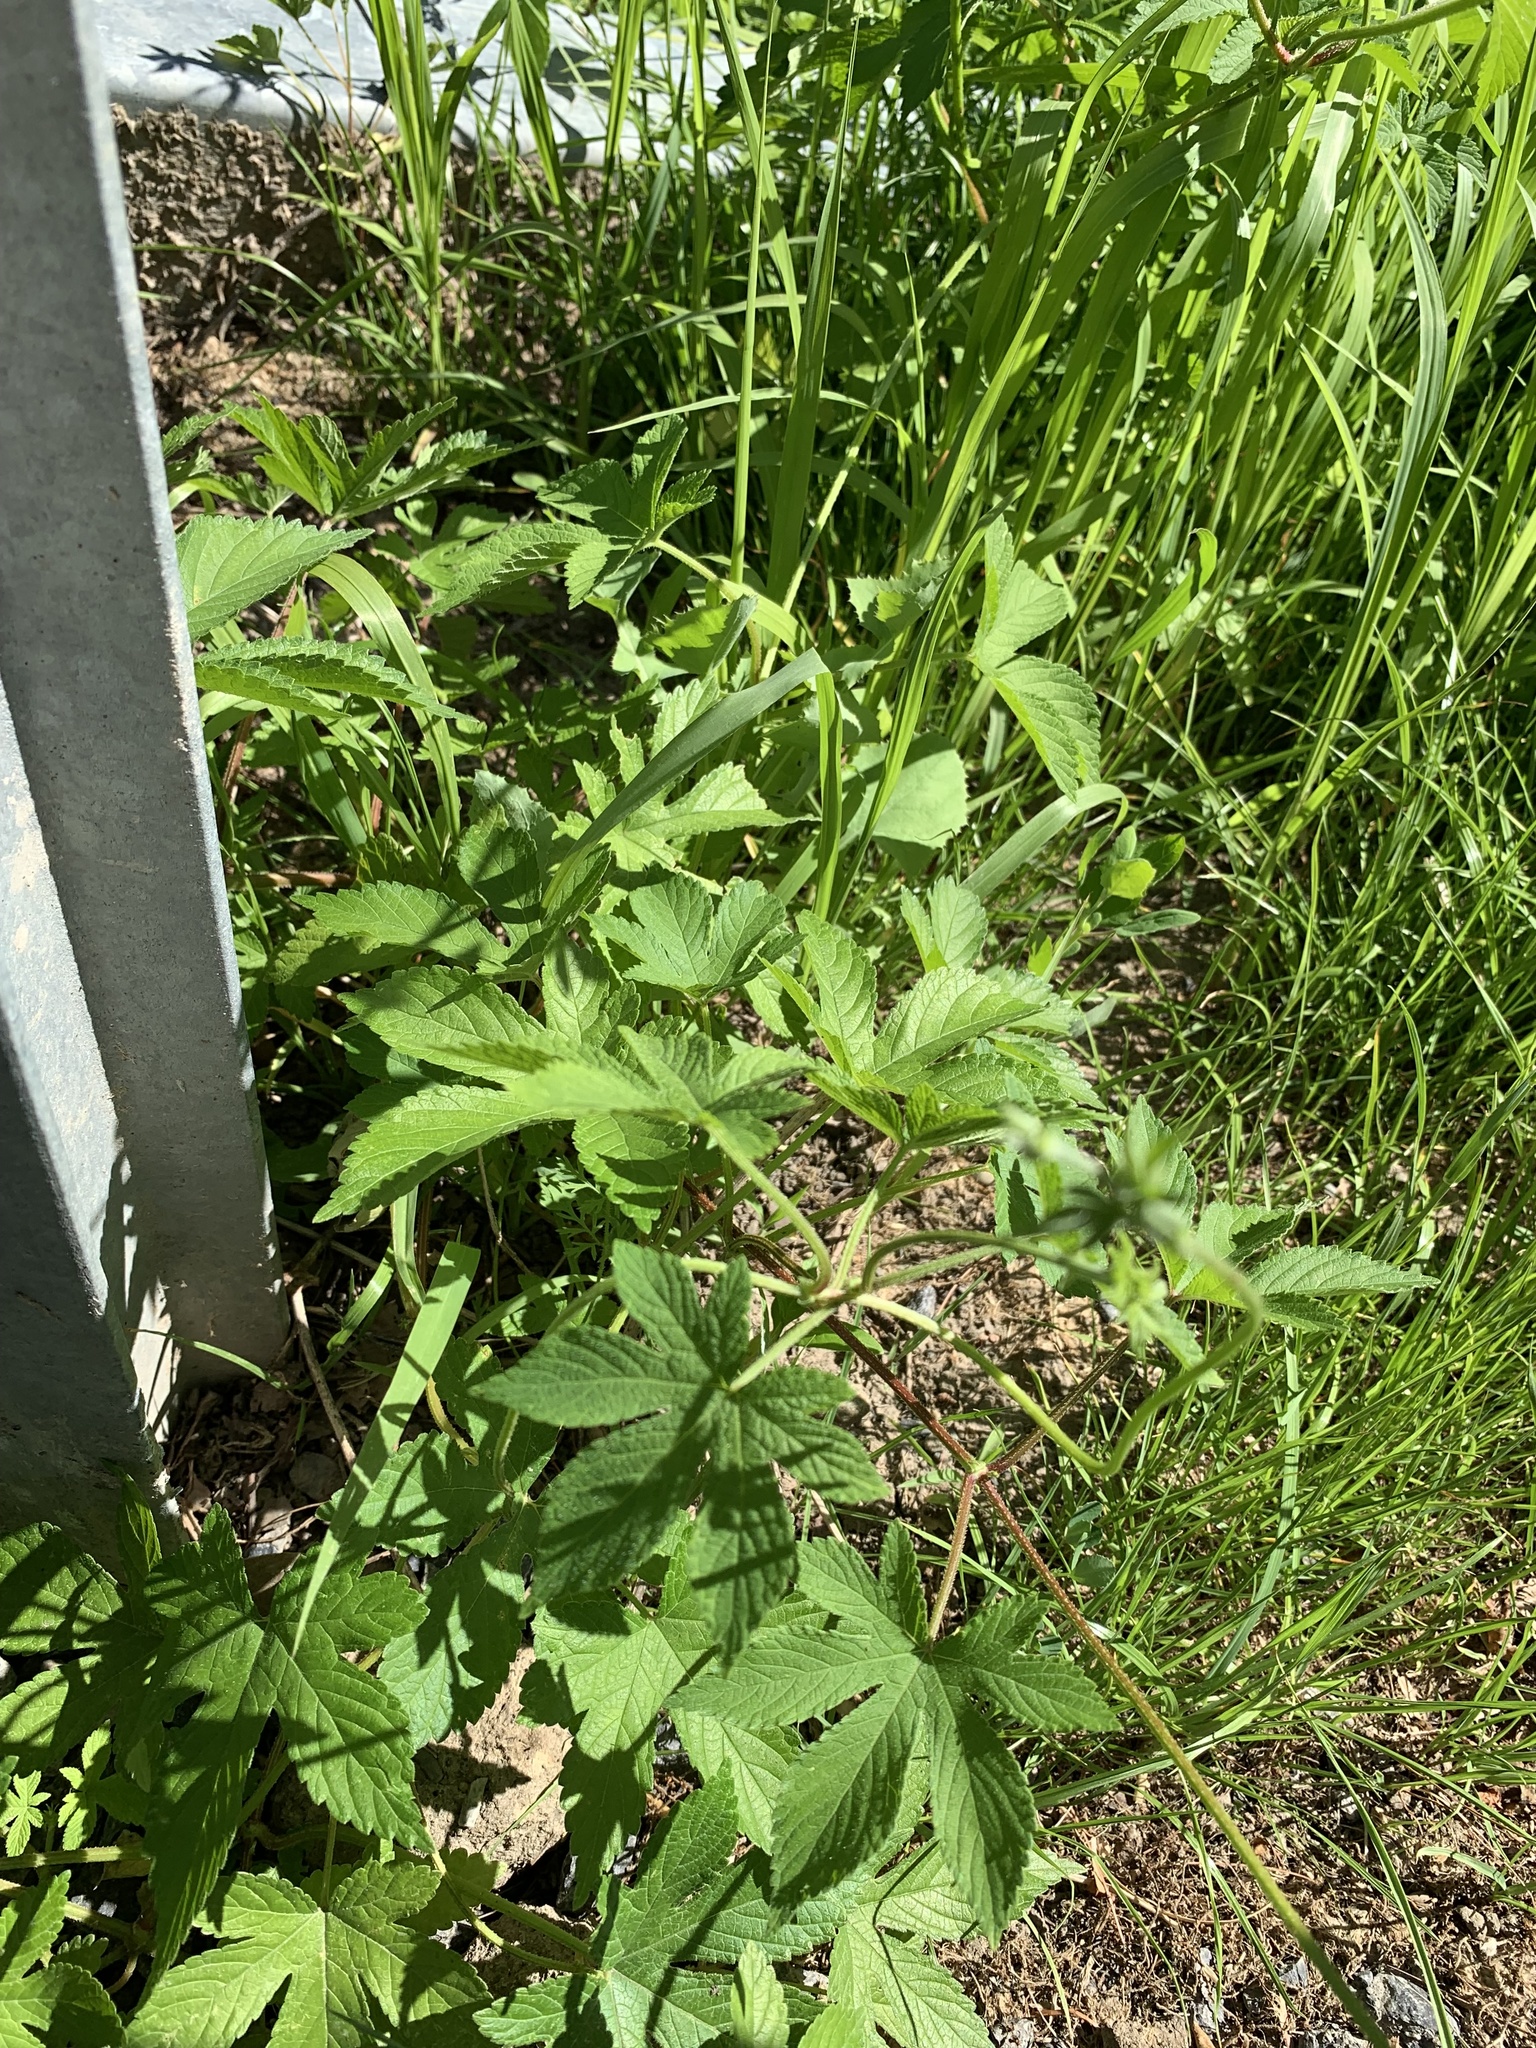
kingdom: Plantae
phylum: Tracheophyta
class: Magnoliopsida
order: Rosales
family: Cannabaceae
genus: Humulus
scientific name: Humulus scandens
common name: Japanese hop
